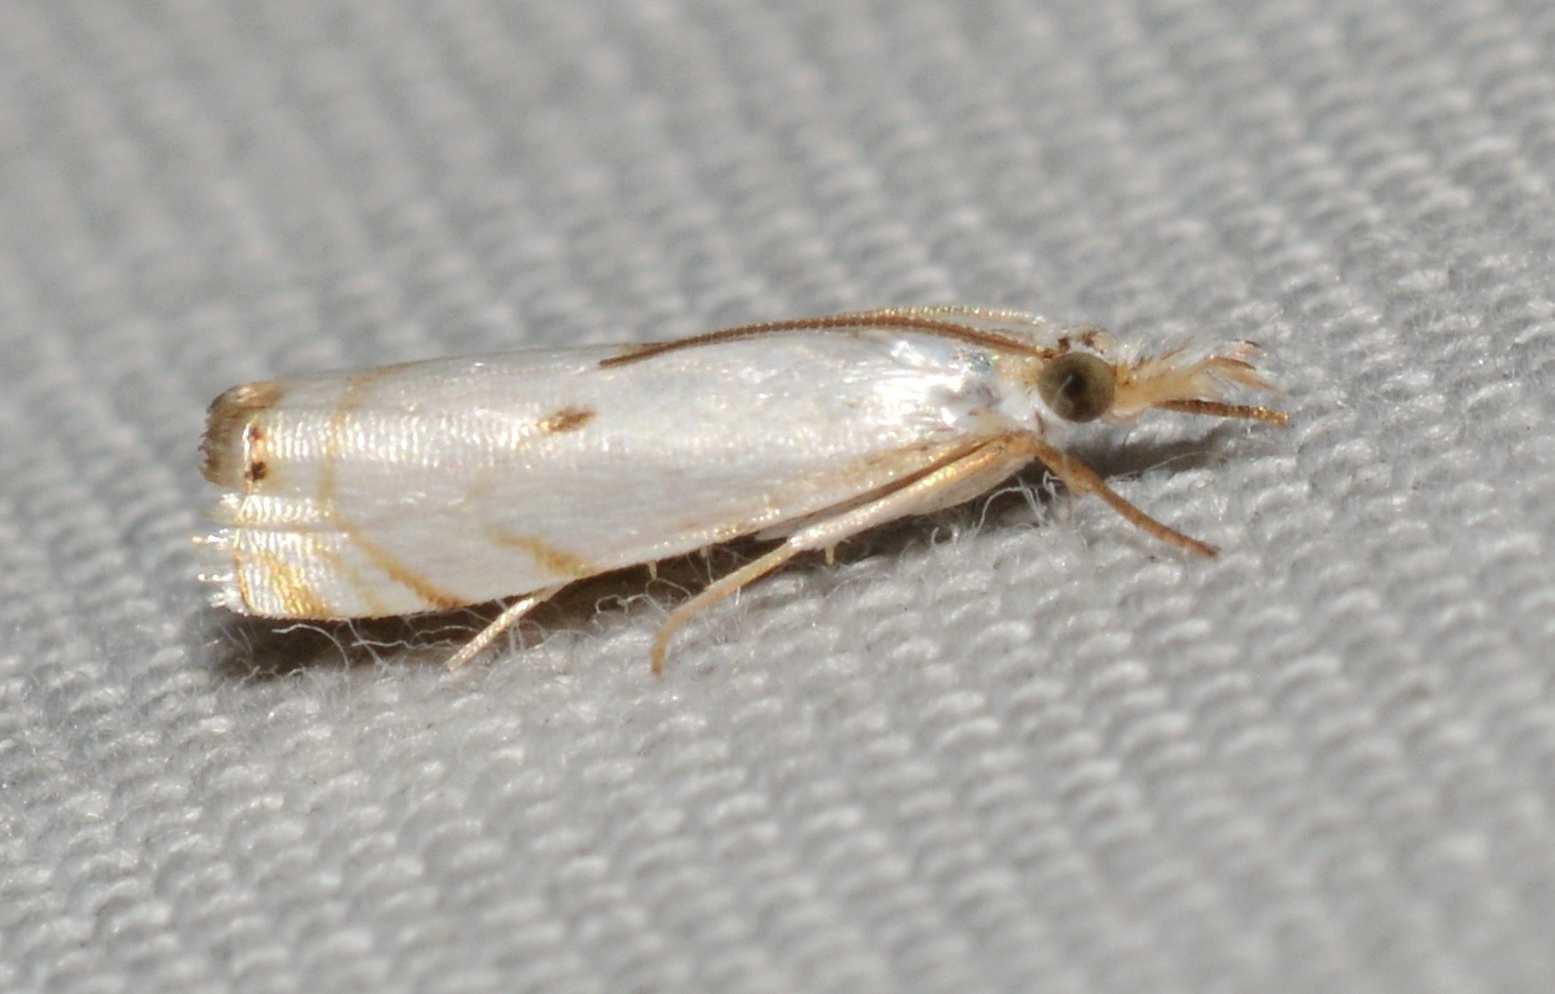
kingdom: Animalia
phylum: Arthropoda
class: Insecta
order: Lepidoptera
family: Crambidae
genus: Microcrambus
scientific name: Microcrambus biguttellus
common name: Gold-stripe grass-veneer moth
